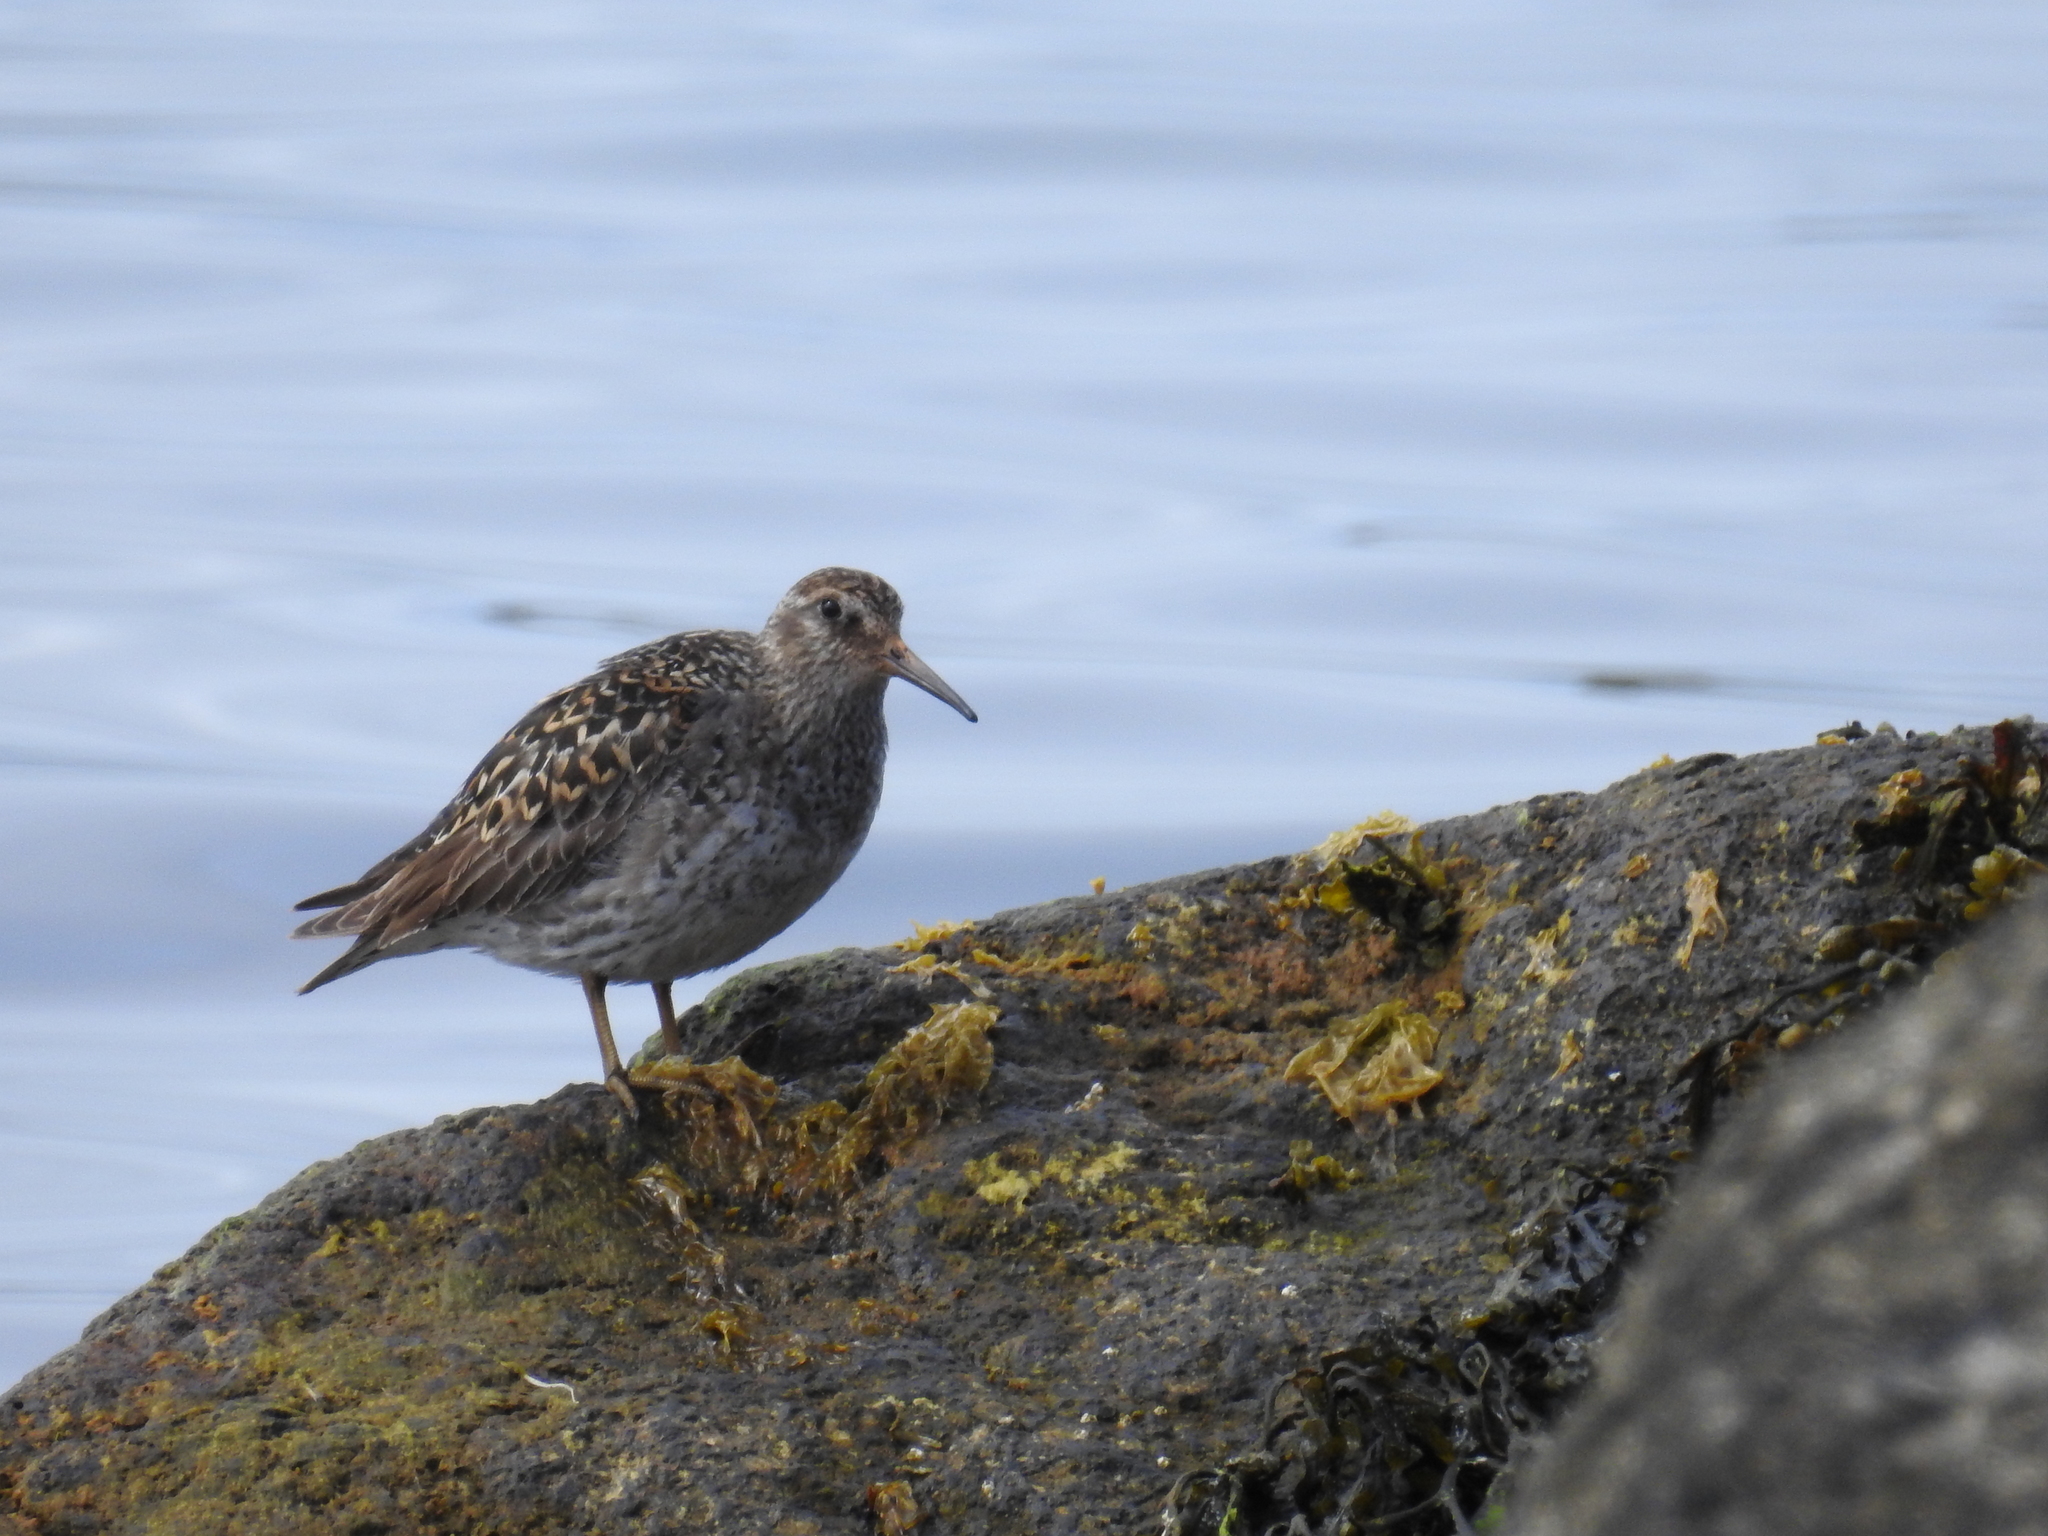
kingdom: Animalia
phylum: Chordata
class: Aves
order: Charadriiformes
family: Scolopacidae
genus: Calidris
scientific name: Calidris maritima
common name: Purple sandpiper
